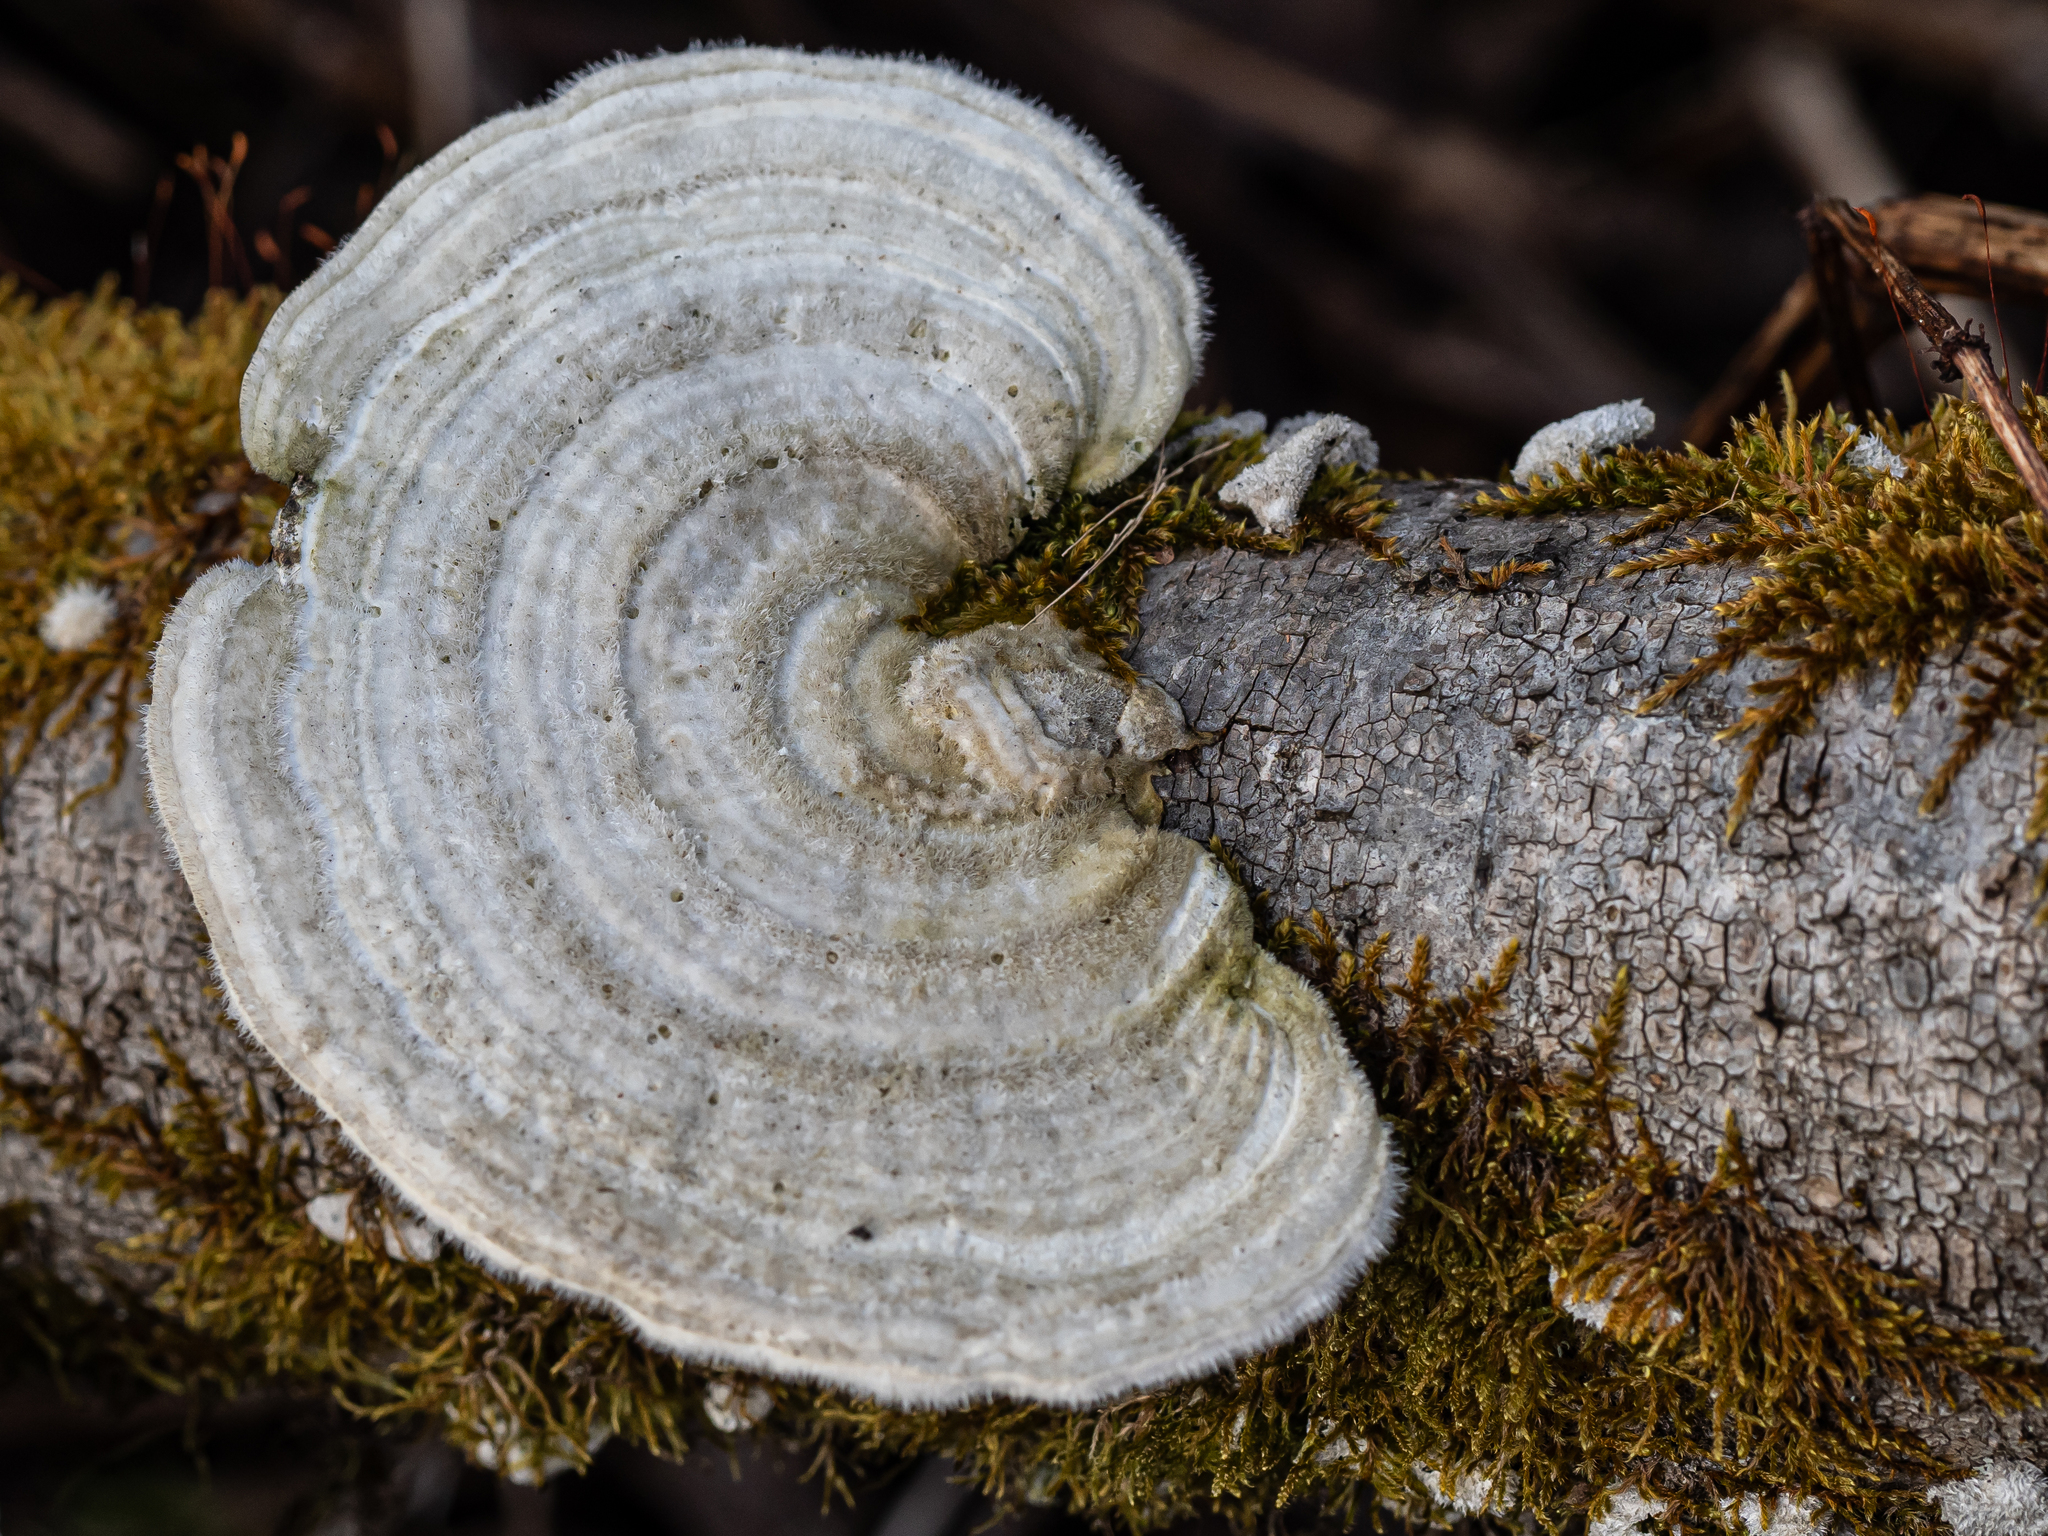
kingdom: Fungi
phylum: Basidiomycota
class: Agaricomycetes
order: Polyporales
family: Polyporaceae
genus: Trametes
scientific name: Trametes hirsuta
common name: Hairy bracket
